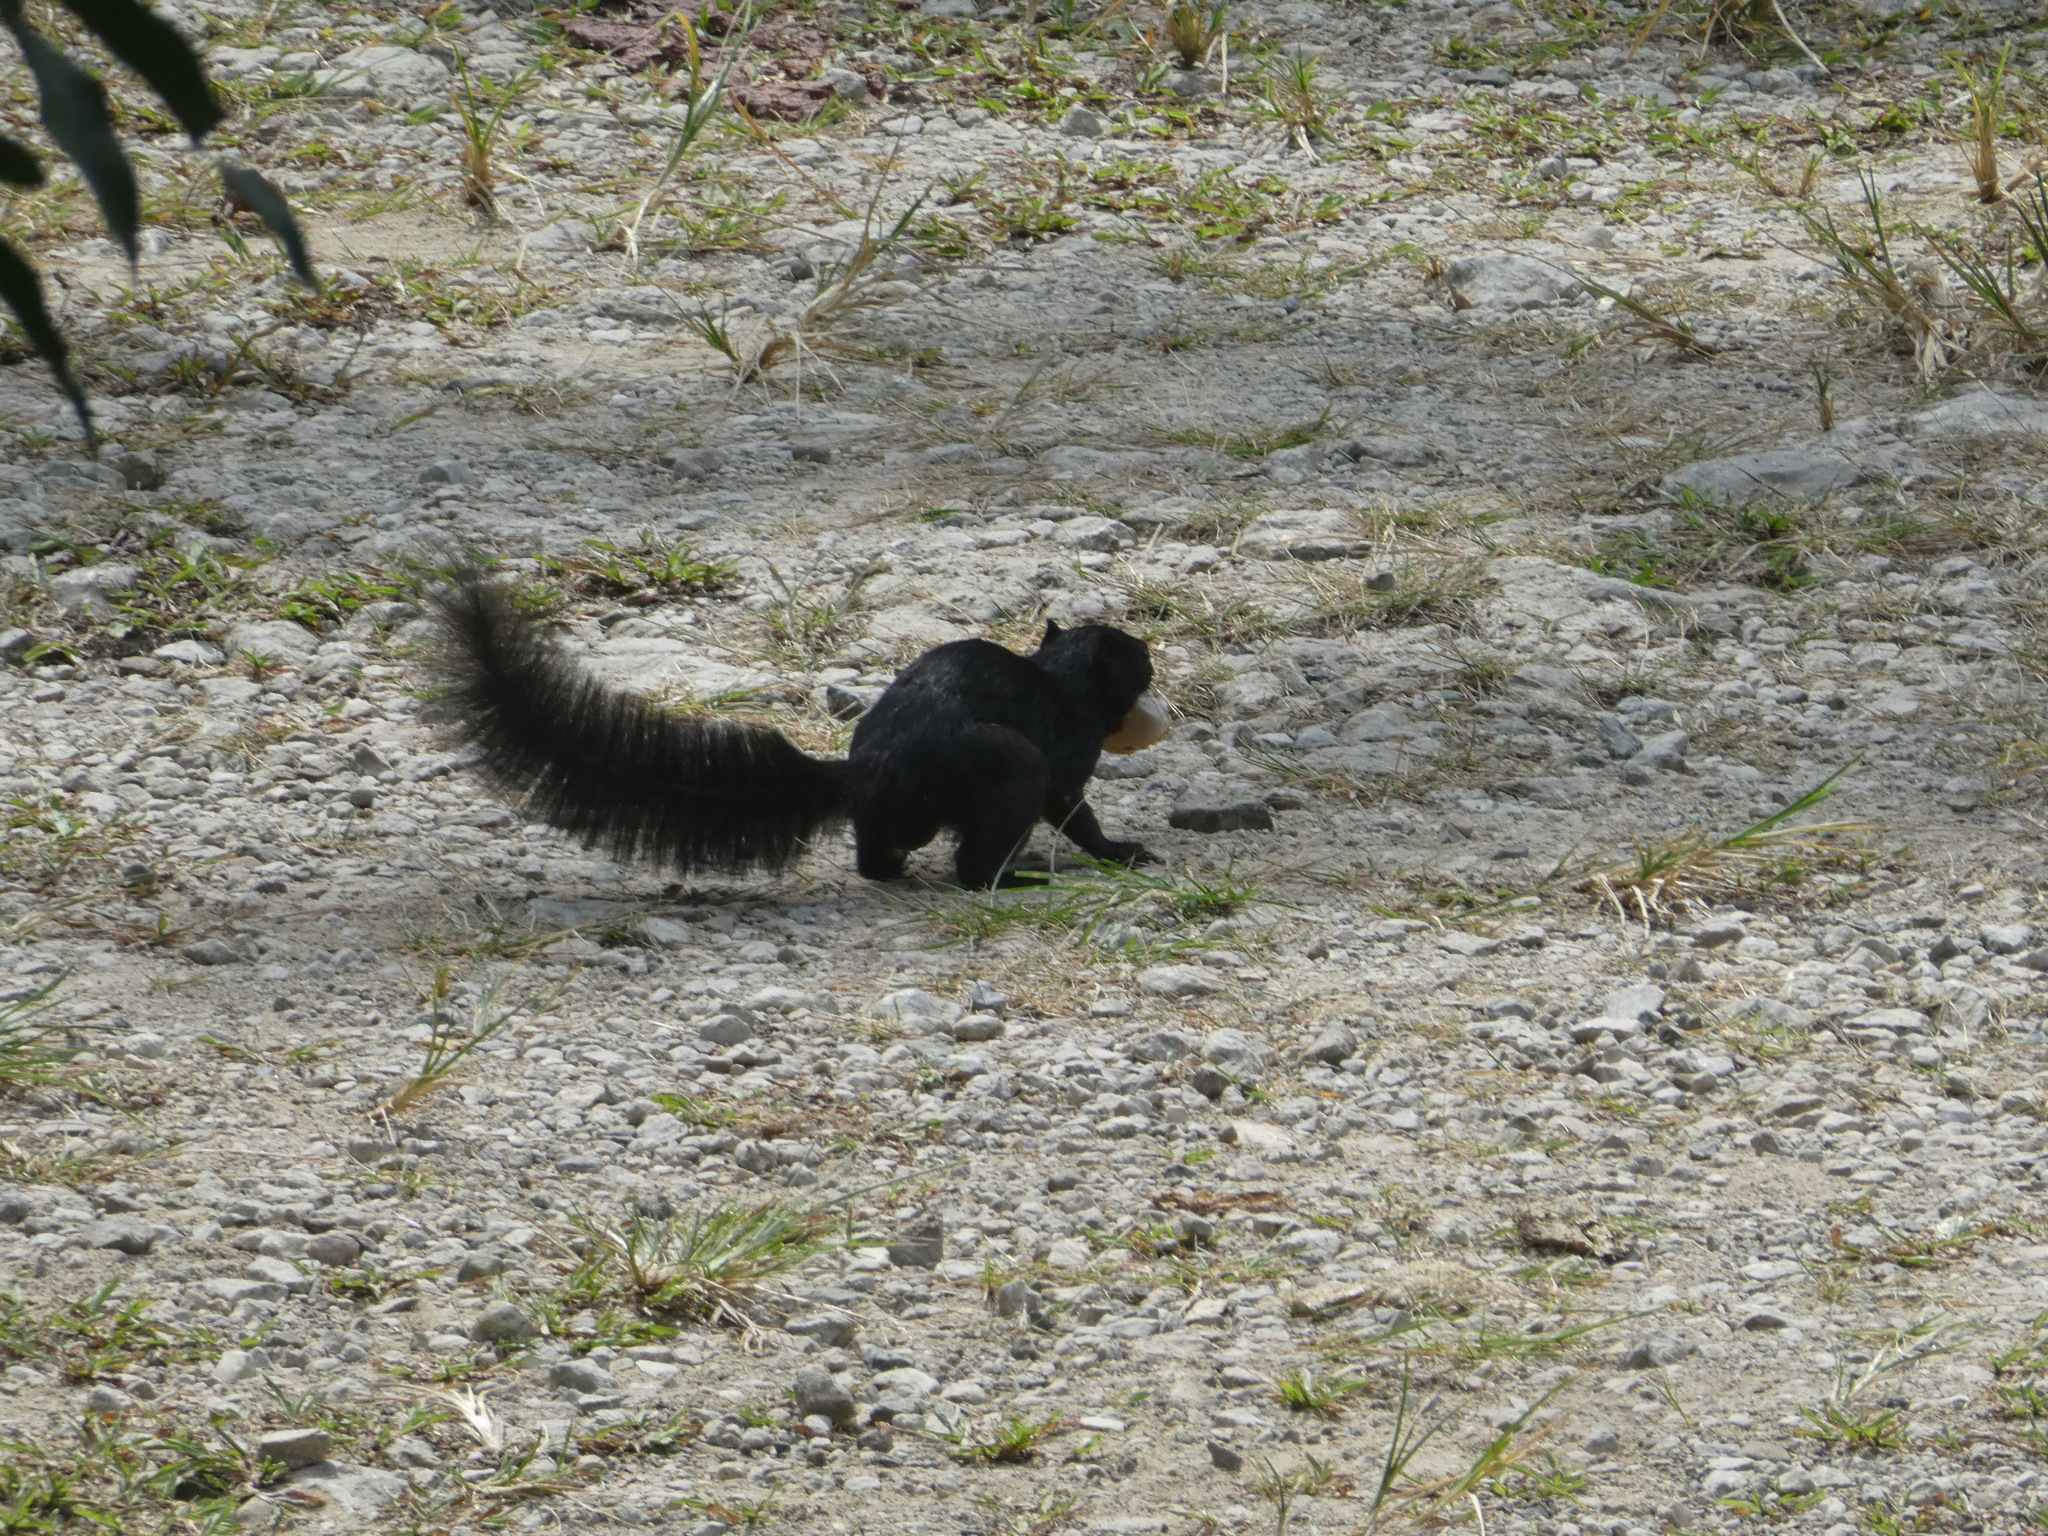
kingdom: Animalia
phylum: Chordata
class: Mammalia
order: Rodentia
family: Sciuridae
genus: Callosciurus
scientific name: Callosciurus prevostii
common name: Prevost's squirrel
